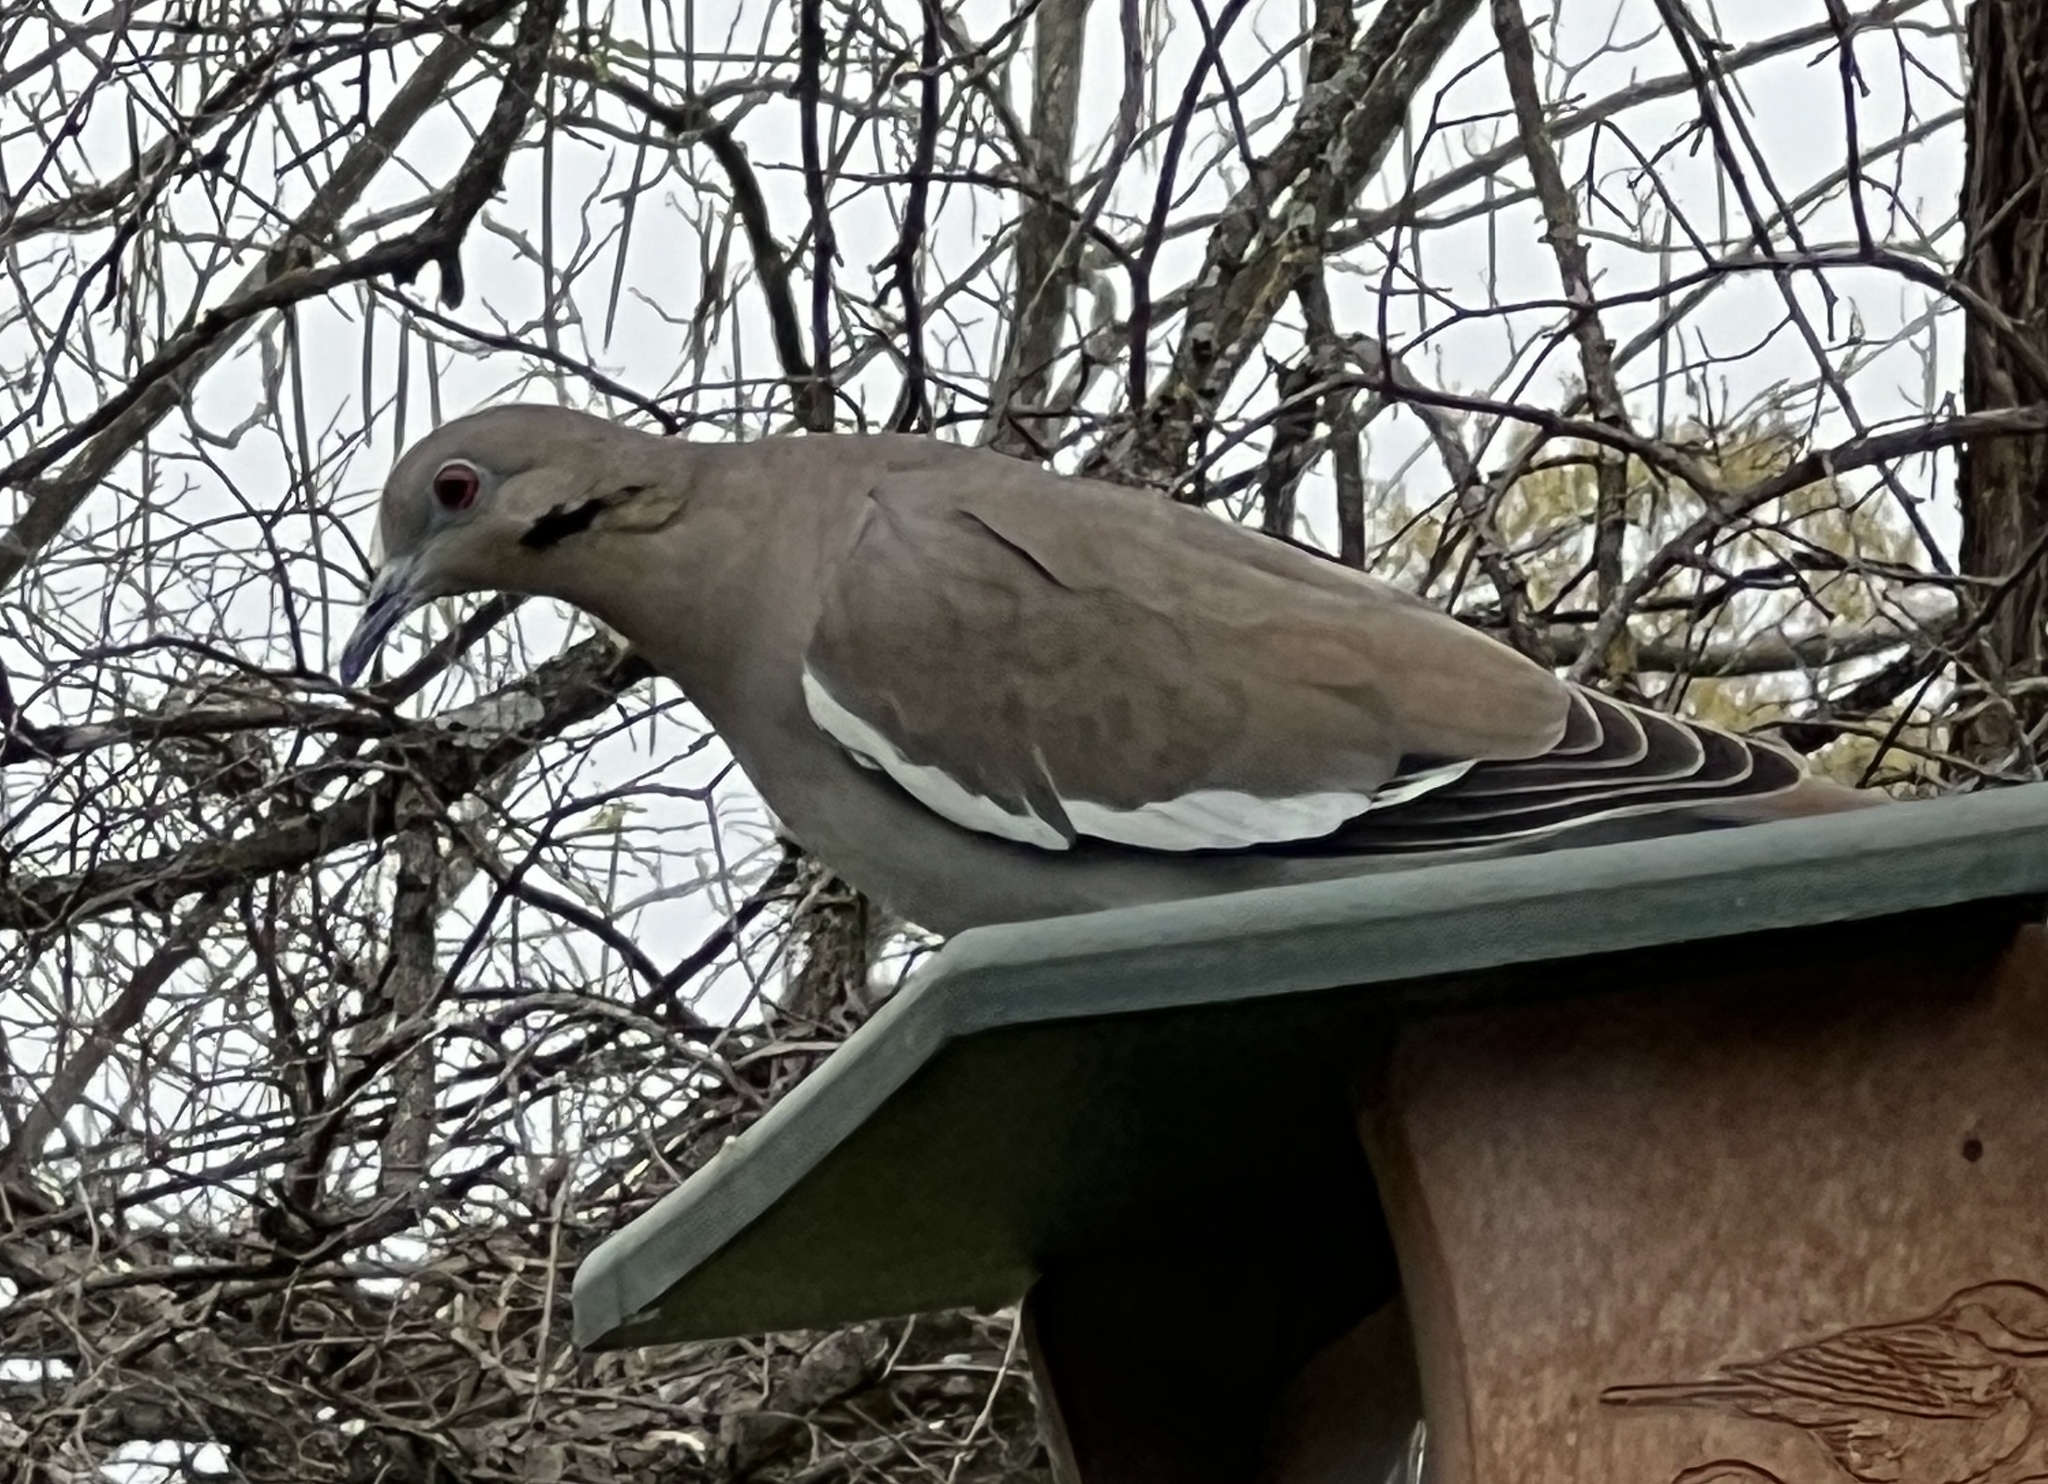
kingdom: Animalia
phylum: Chordata
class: Aves
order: Columbiformes
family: Columbidae
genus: Zenaida
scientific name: Zenaida asiatica
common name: White-winged dove
